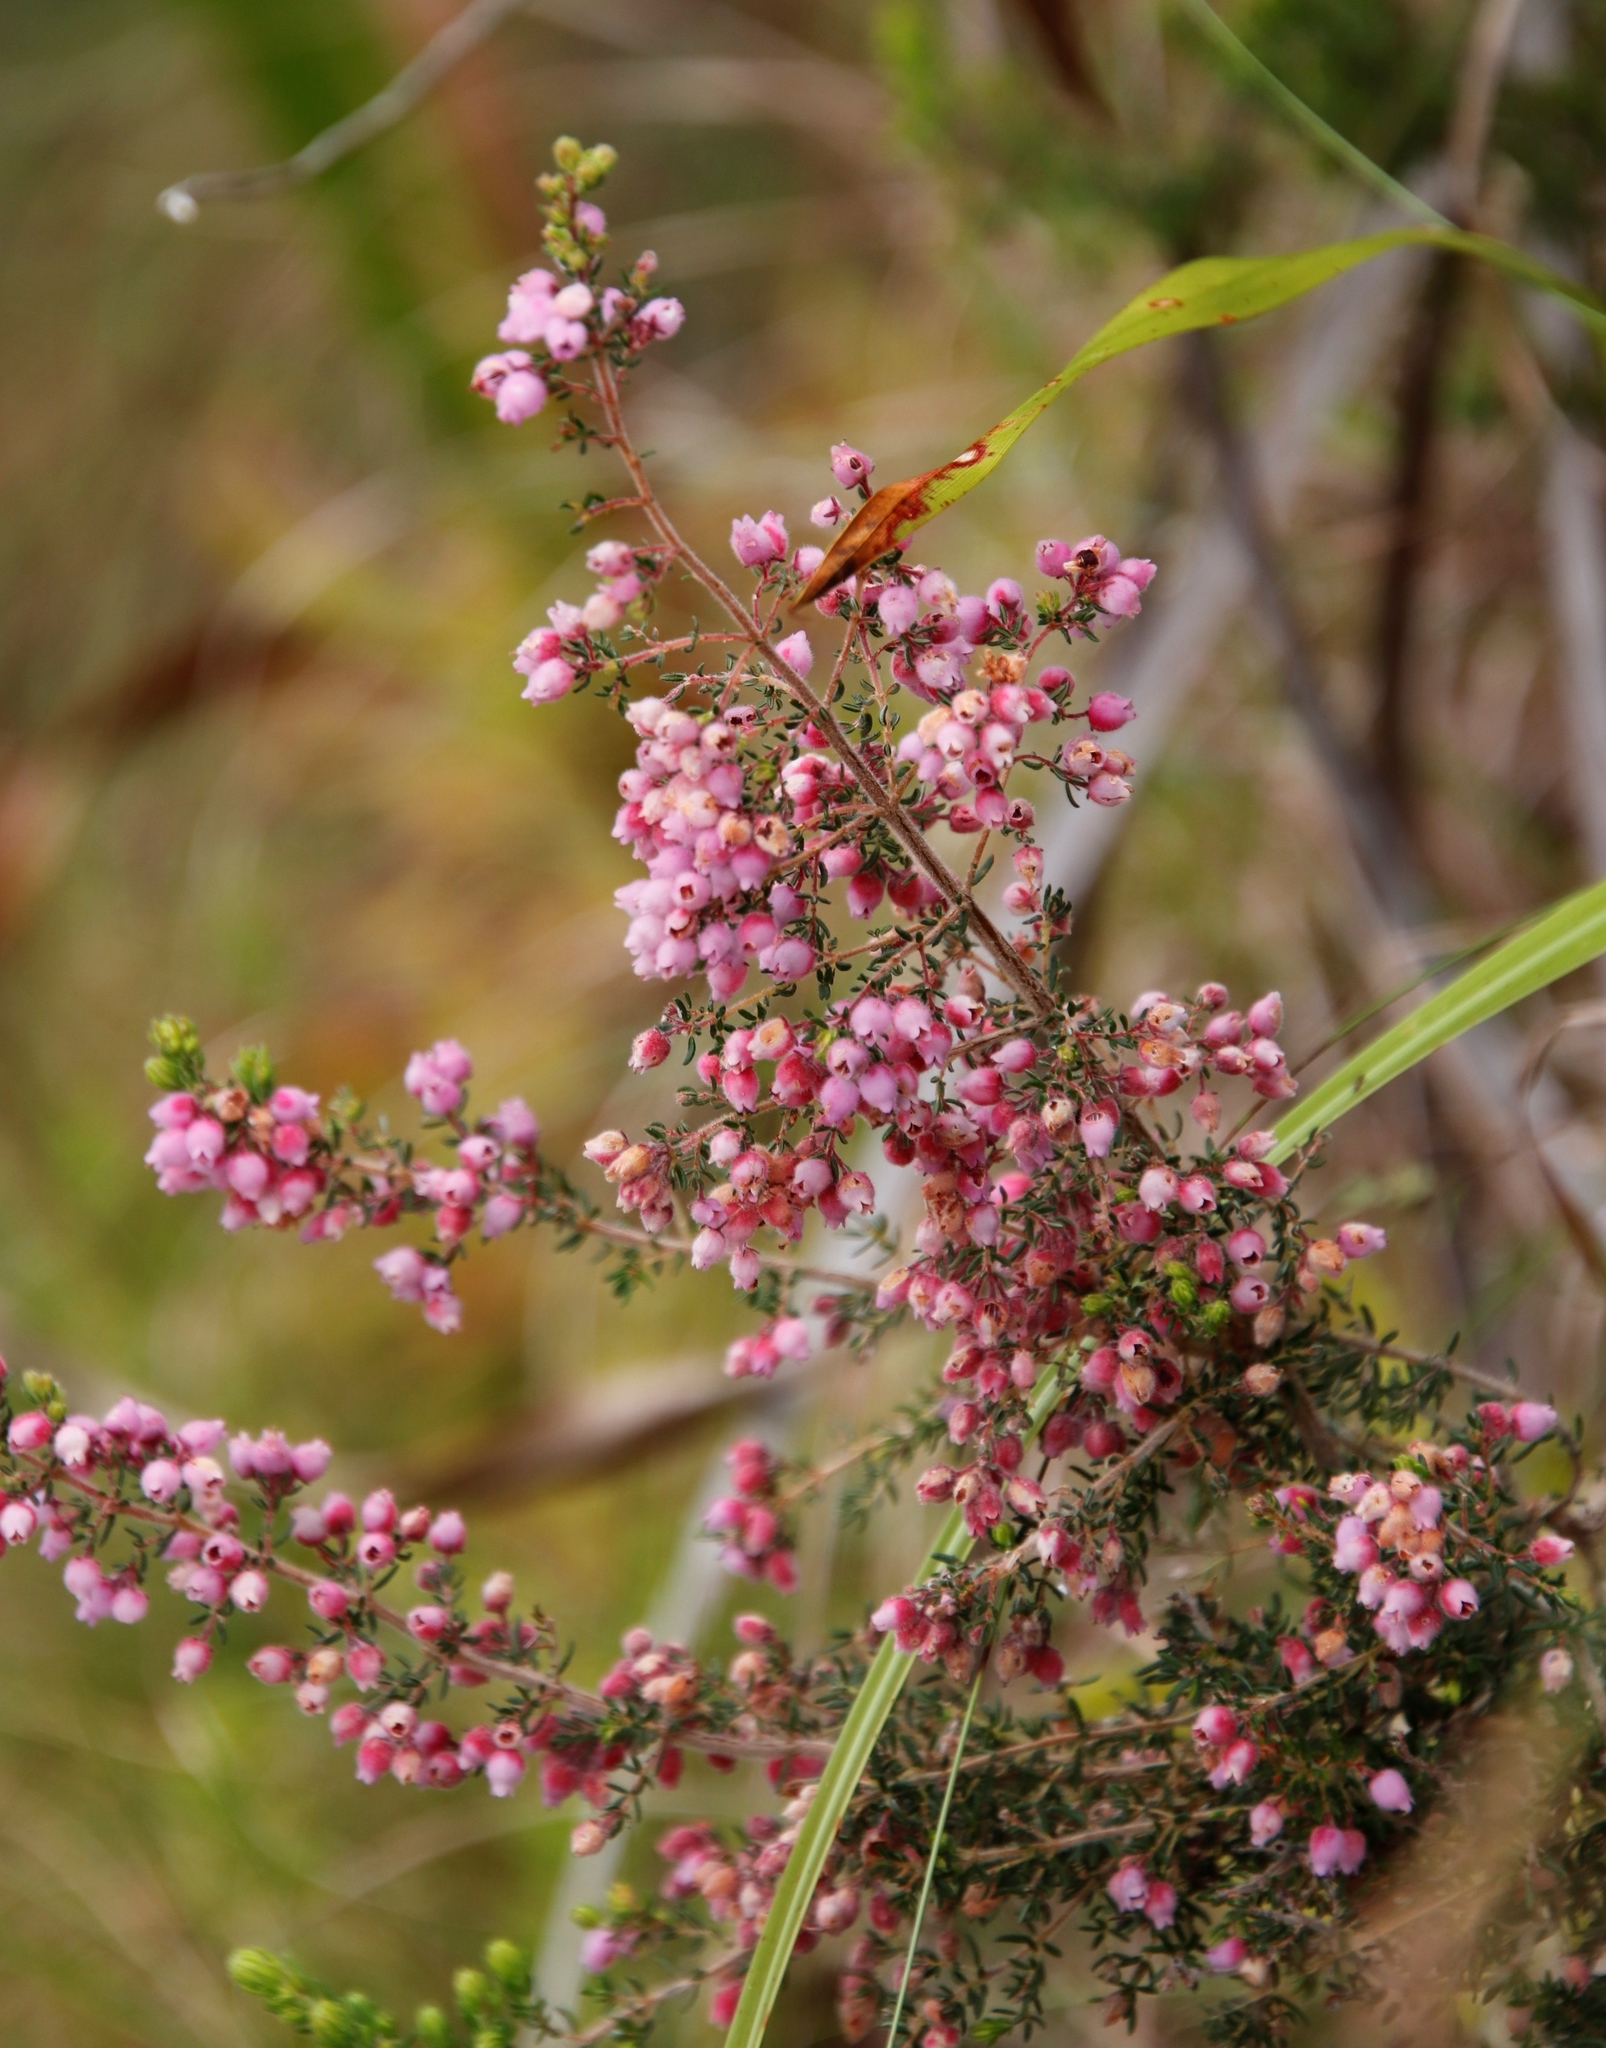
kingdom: Plantae
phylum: Tracheophyta
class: Magnoliopsida
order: Ericales
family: Ericaceae
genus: Erica
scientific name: Erica hirtiflora
